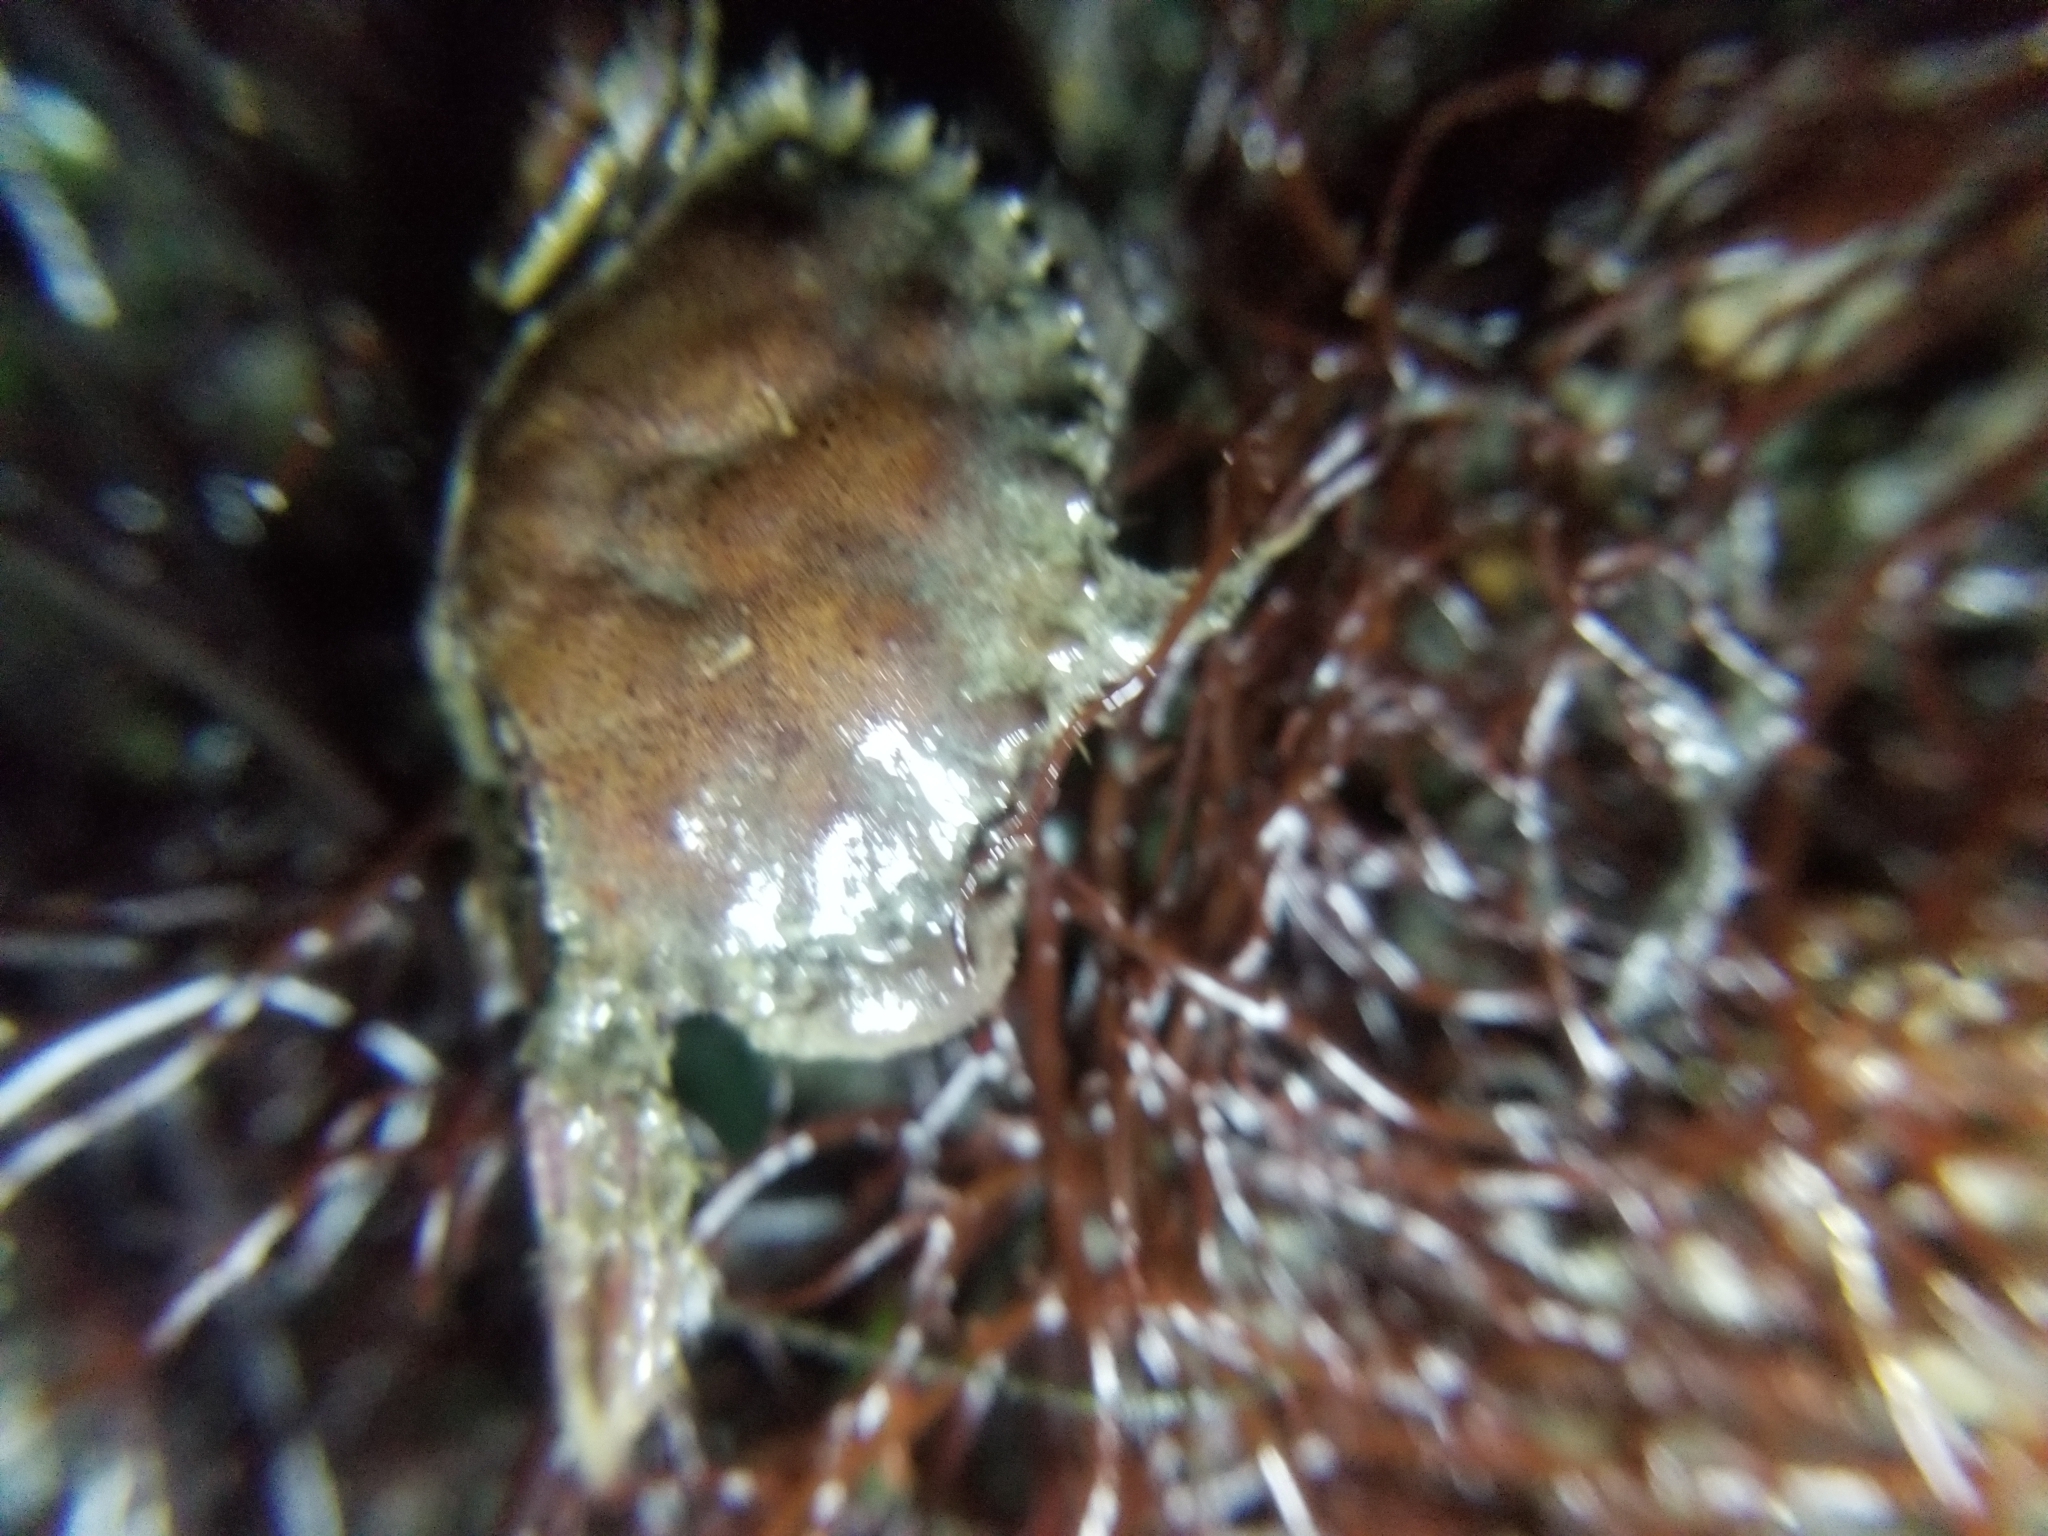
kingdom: Animalia
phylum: Arthropoda
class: Malacostraca
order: Decapoda
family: Cancridae
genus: Romaleon
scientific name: Romaleon antennarium
